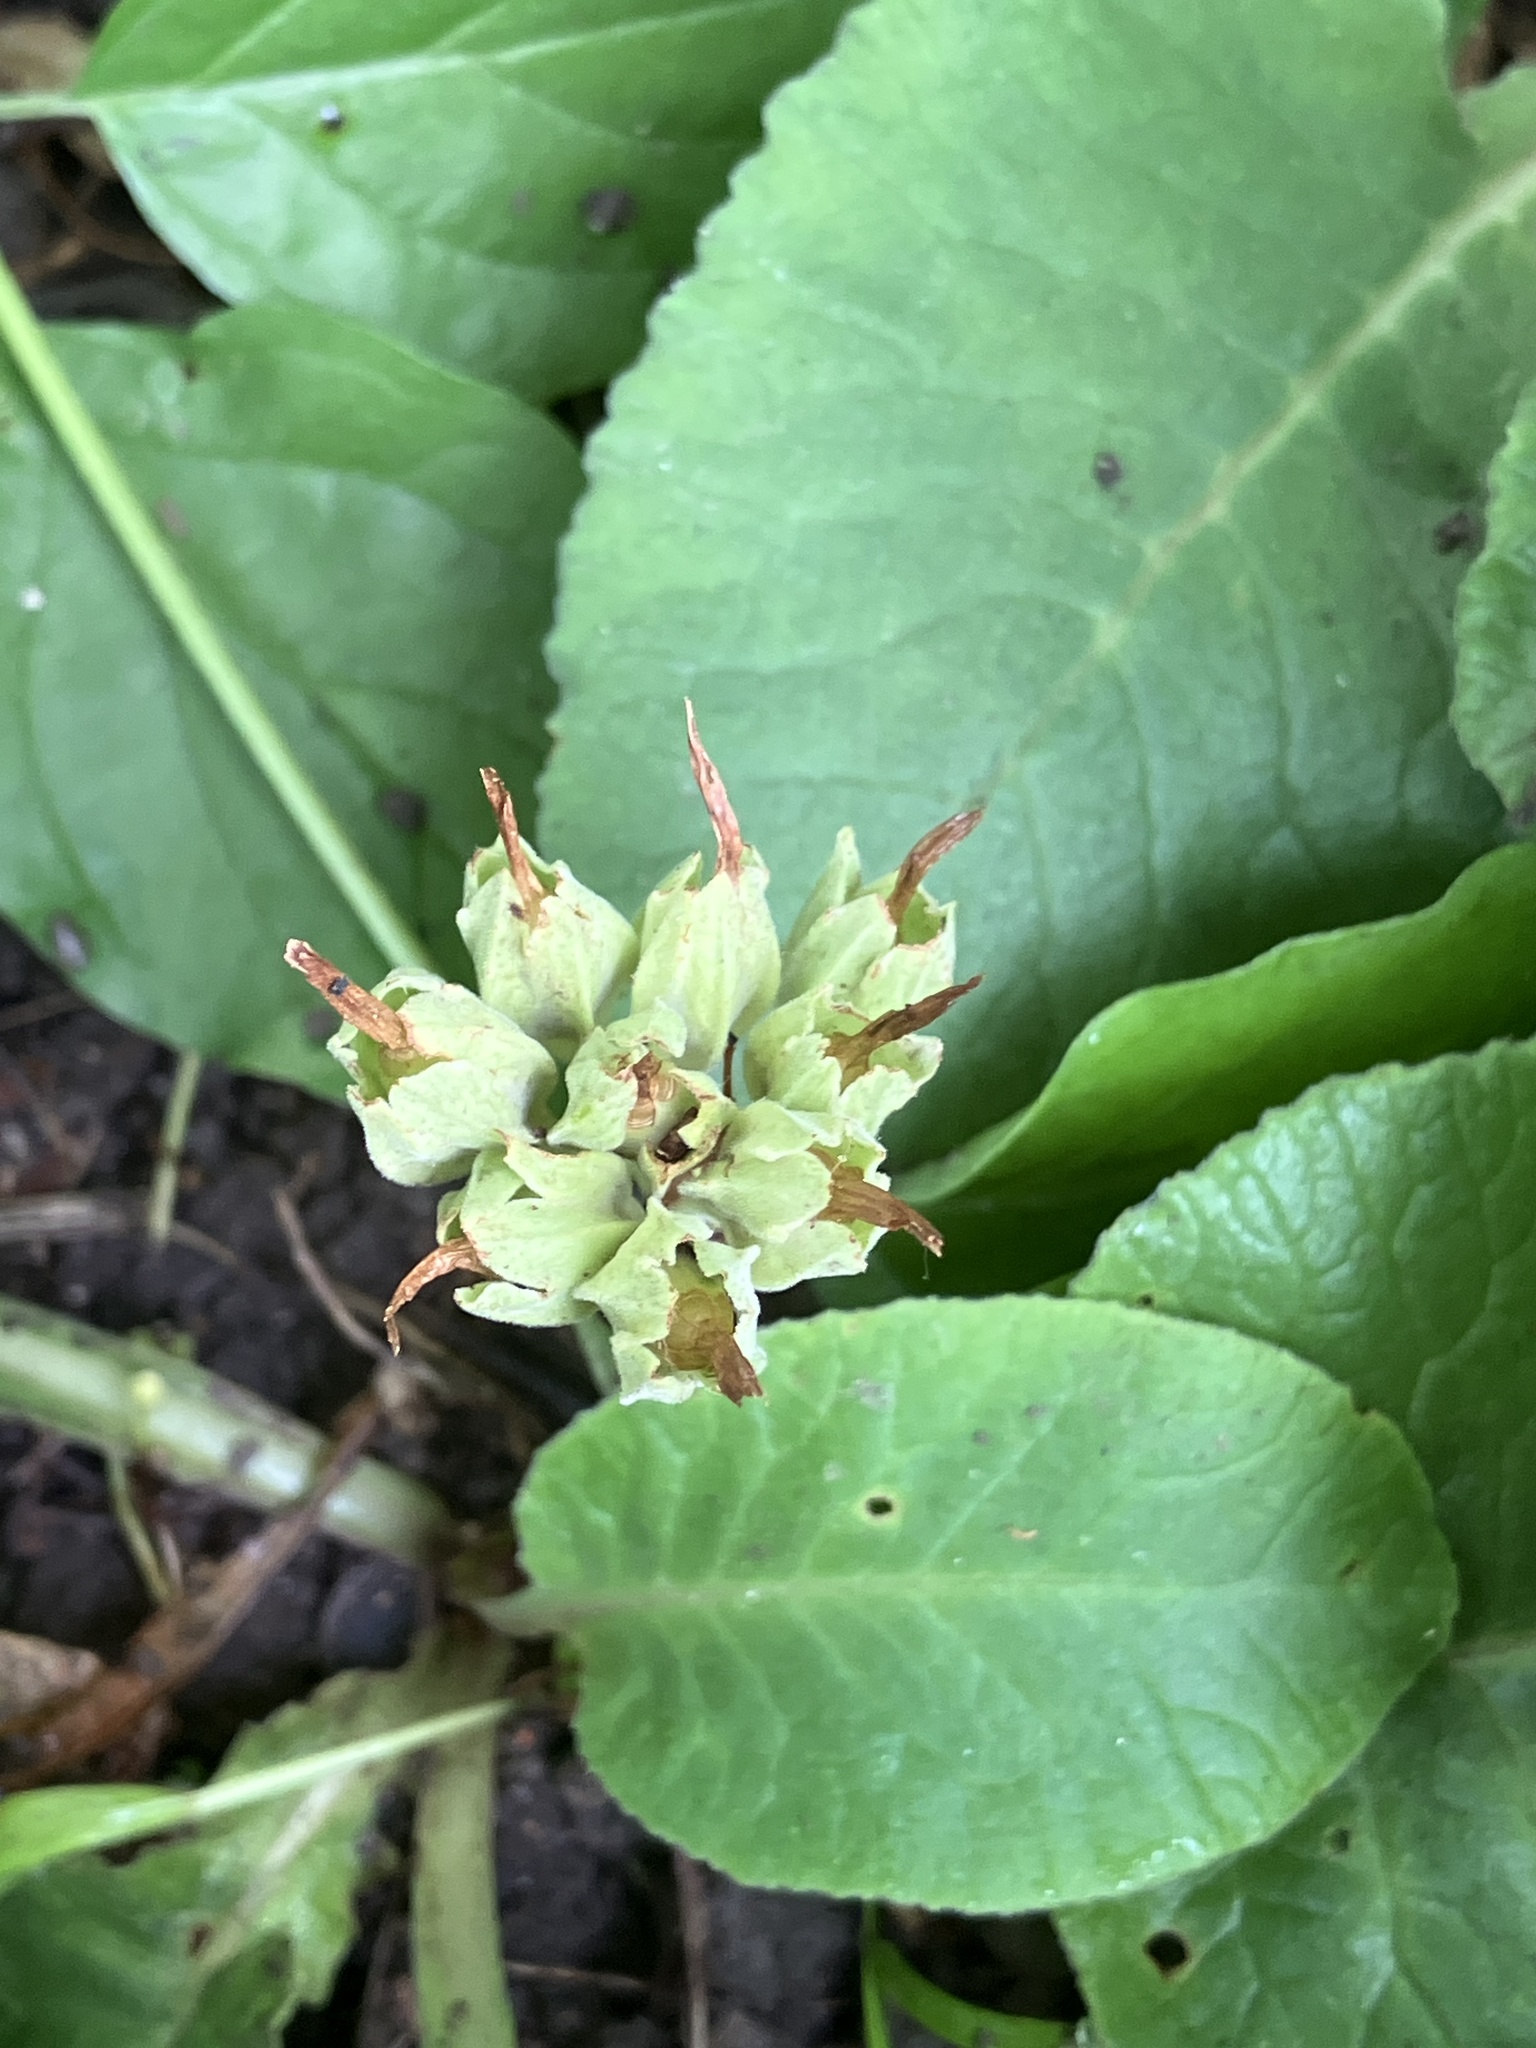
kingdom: Plantae
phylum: Tracheophyta
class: Magnoliopsida
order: Ericales
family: Primulaceae
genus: Primula
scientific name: Primula veris
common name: Cowslip
